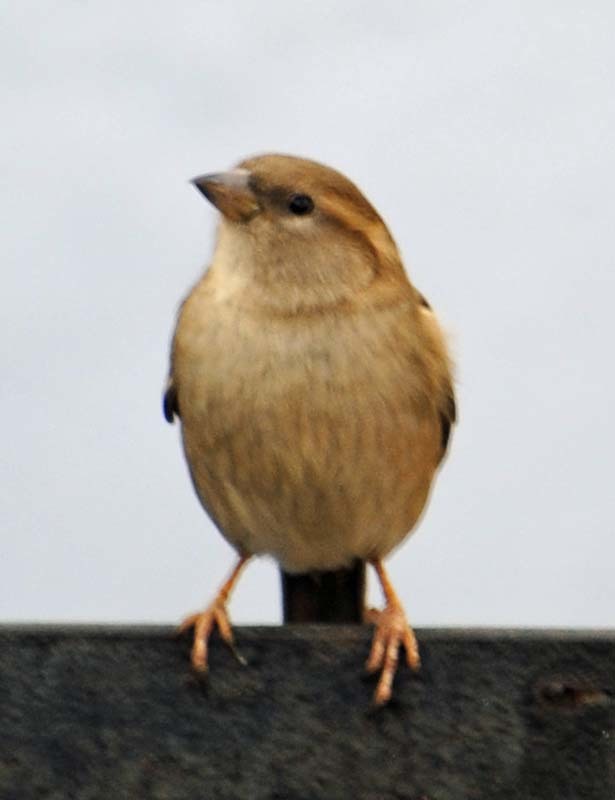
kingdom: Animalia
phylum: Chordata
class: Aves
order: Passeriformes
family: Passeridae
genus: Passer
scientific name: Passer domesticus
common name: House sparrow
